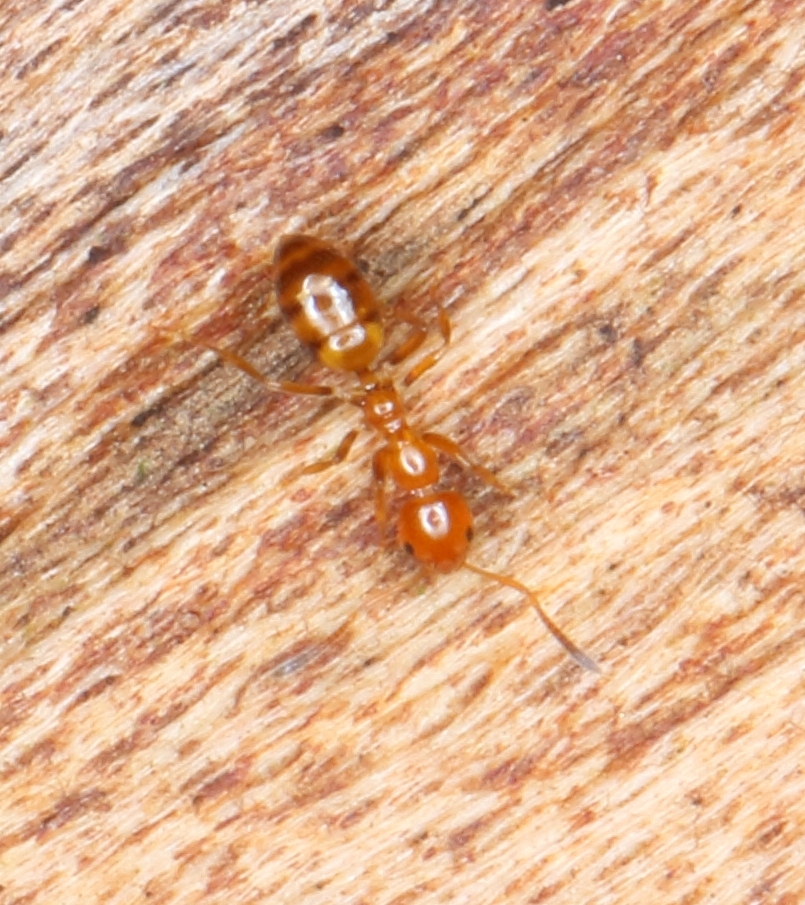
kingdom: Animalia
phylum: Arthropoda
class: Insecta
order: Hymenoptera
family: Formicidae
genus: Plagiolepis
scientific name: Plagiolepis decora
